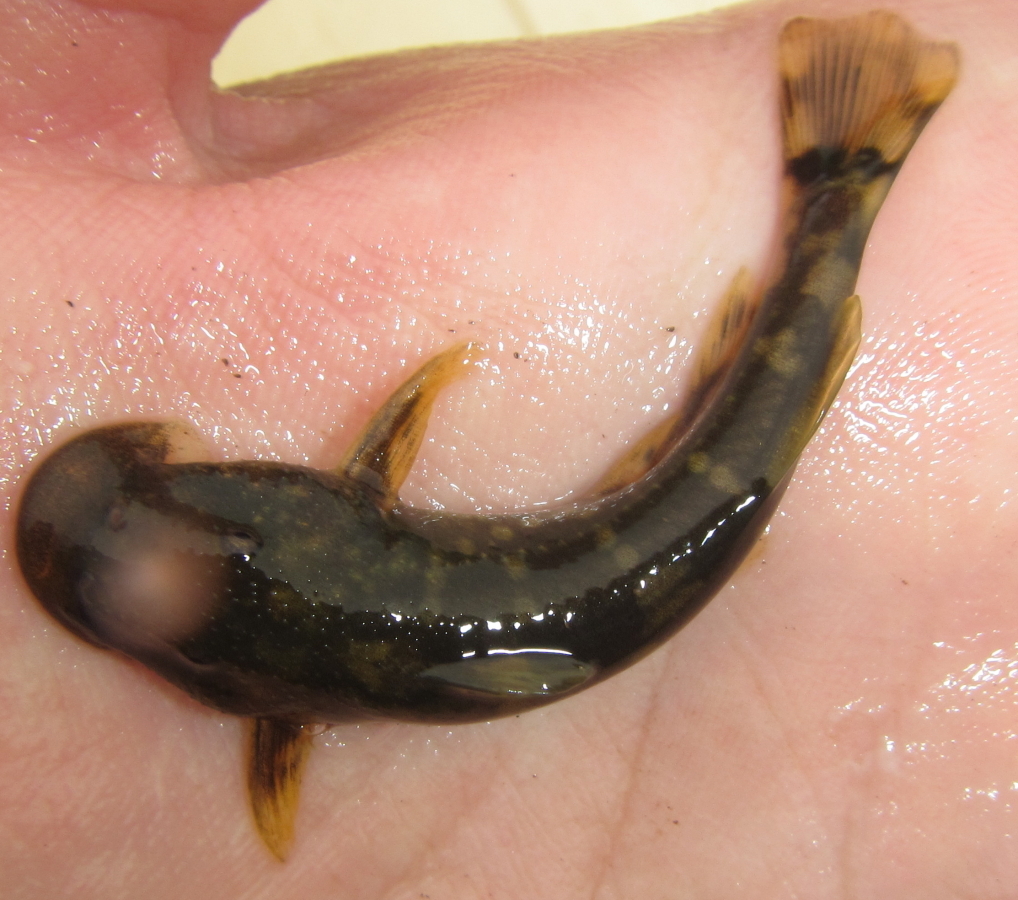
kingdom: Animalia
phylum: Chordata
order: Siluriformes
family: Mochokidae
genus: Chiloglanis
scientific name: Chiloglanis anoterus
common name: Pennant-tailed catlet
